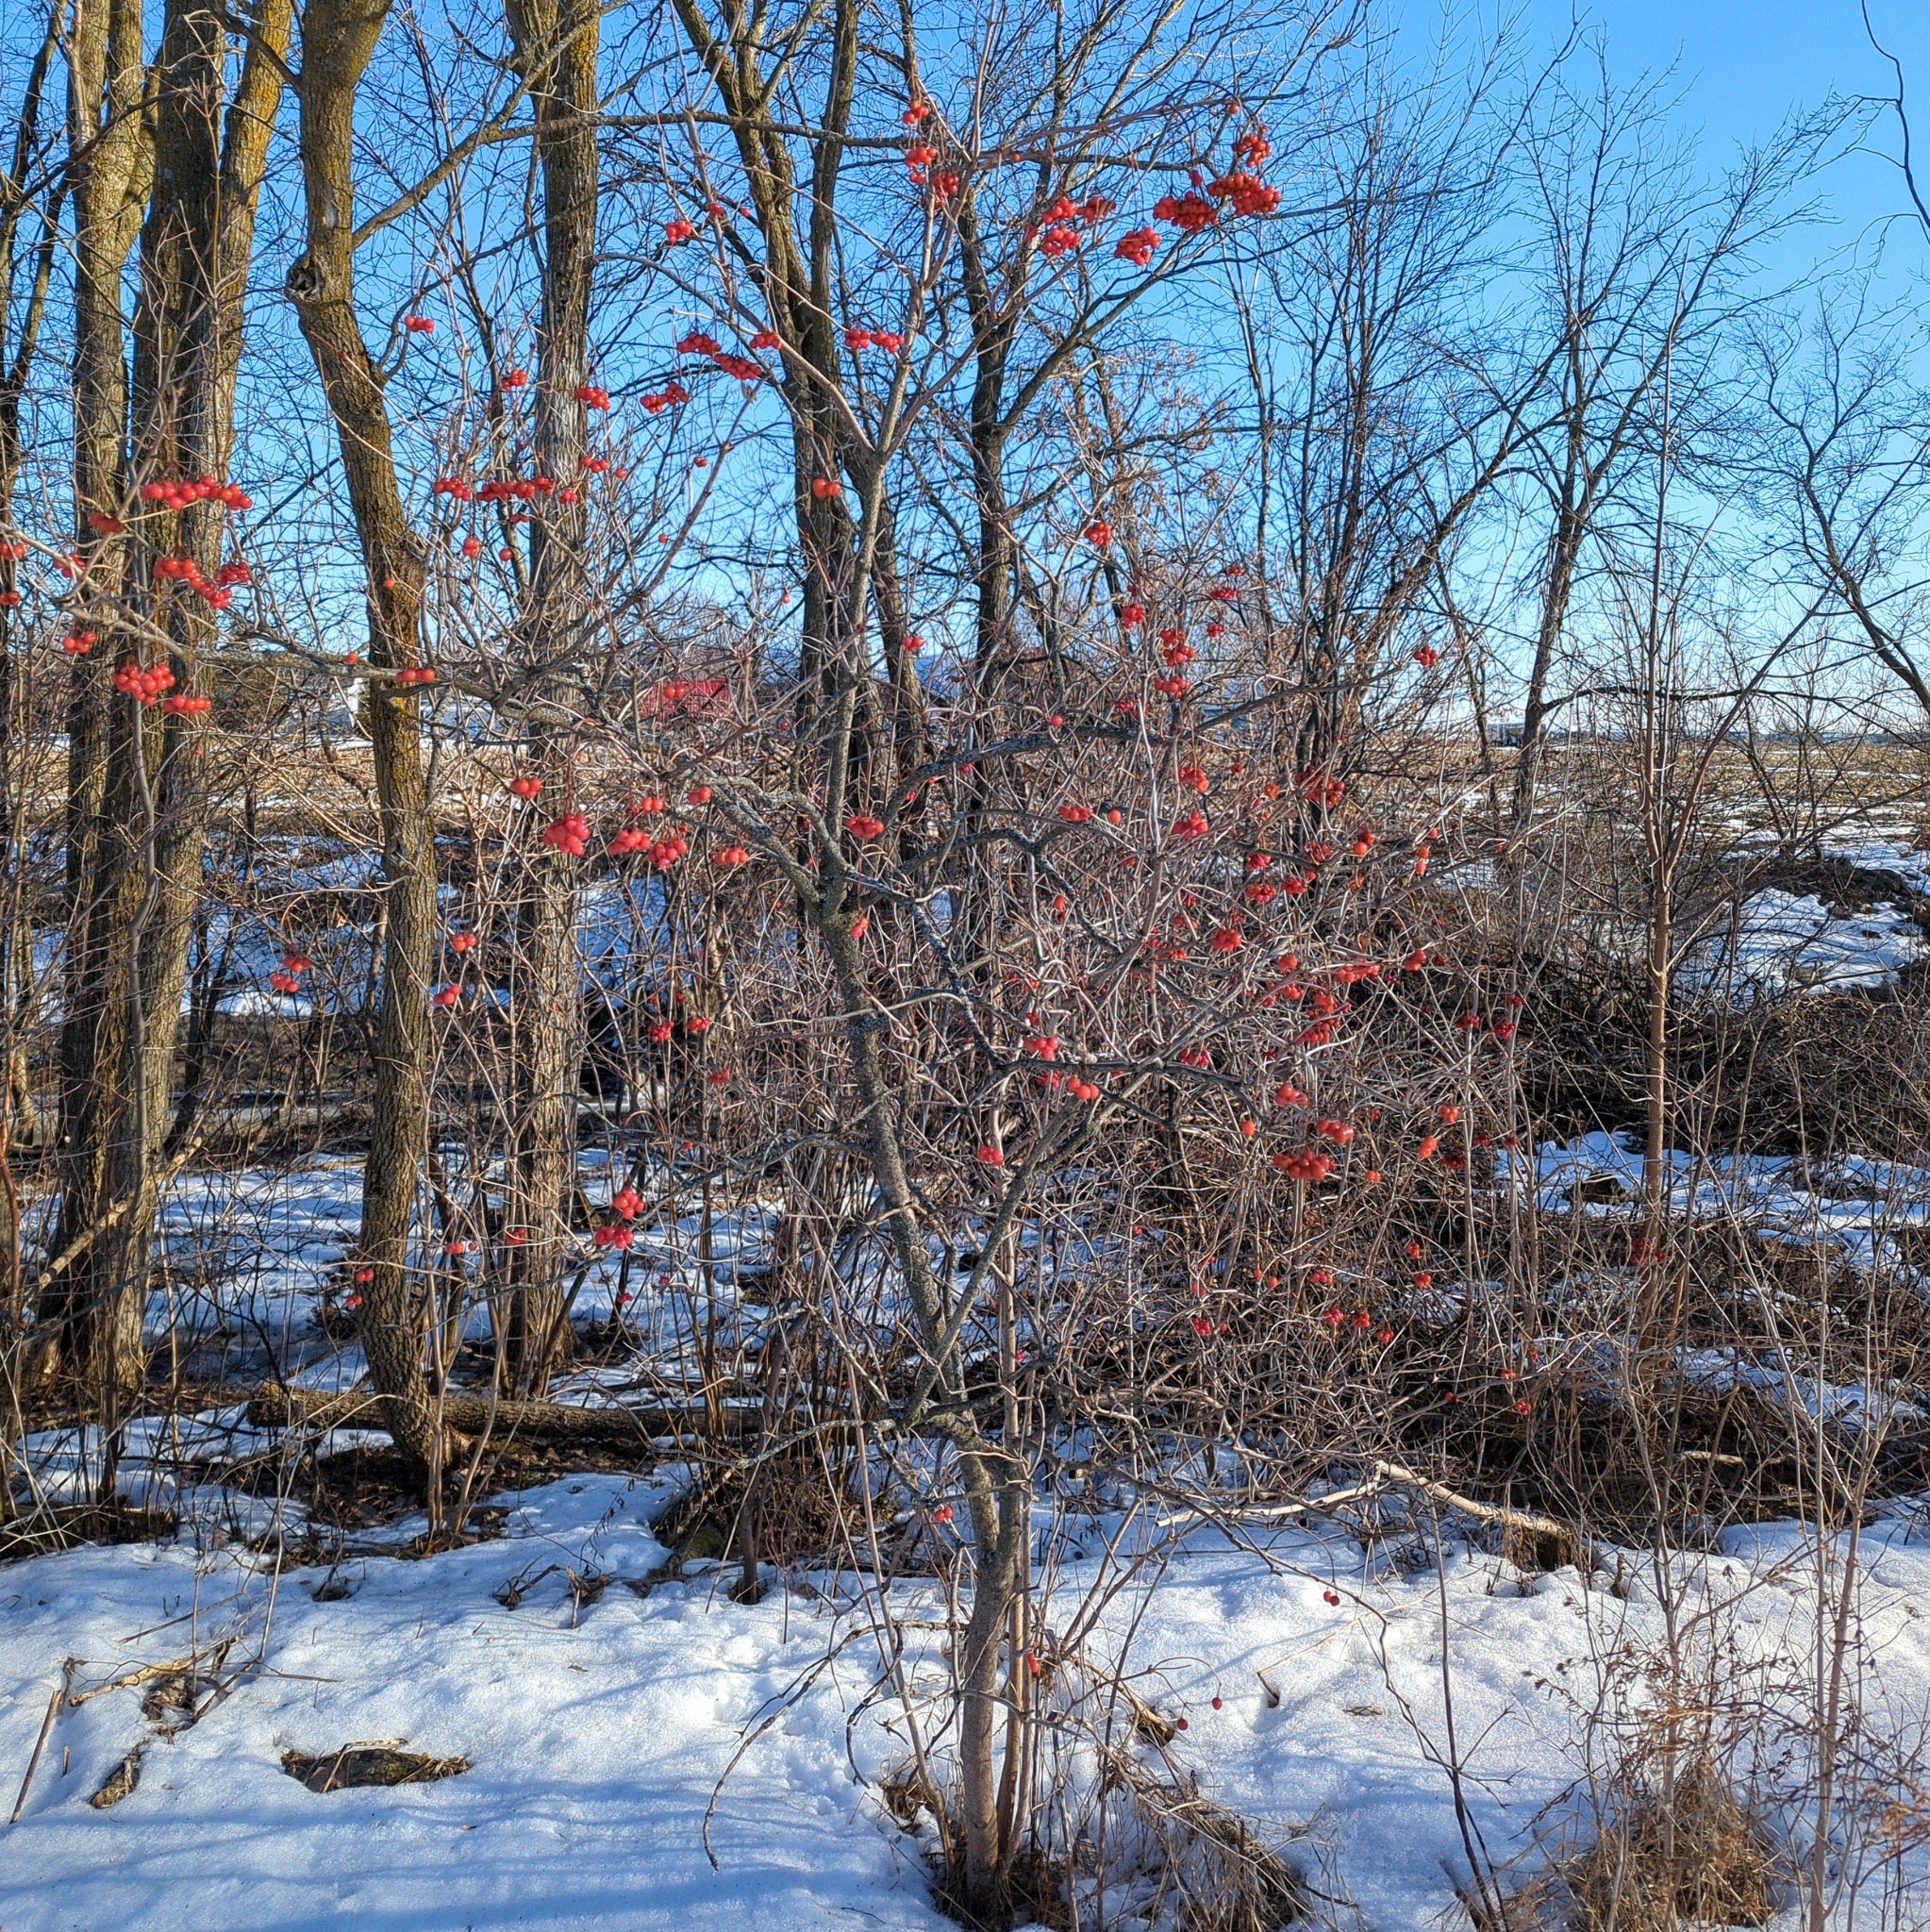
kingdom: Plantae
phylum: Tracheophyta
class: Magnoliopsida
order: Dipsacales
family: Viburnaceae
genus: Viburnum
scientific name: Viburnum opulus
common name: Guelder-rose
